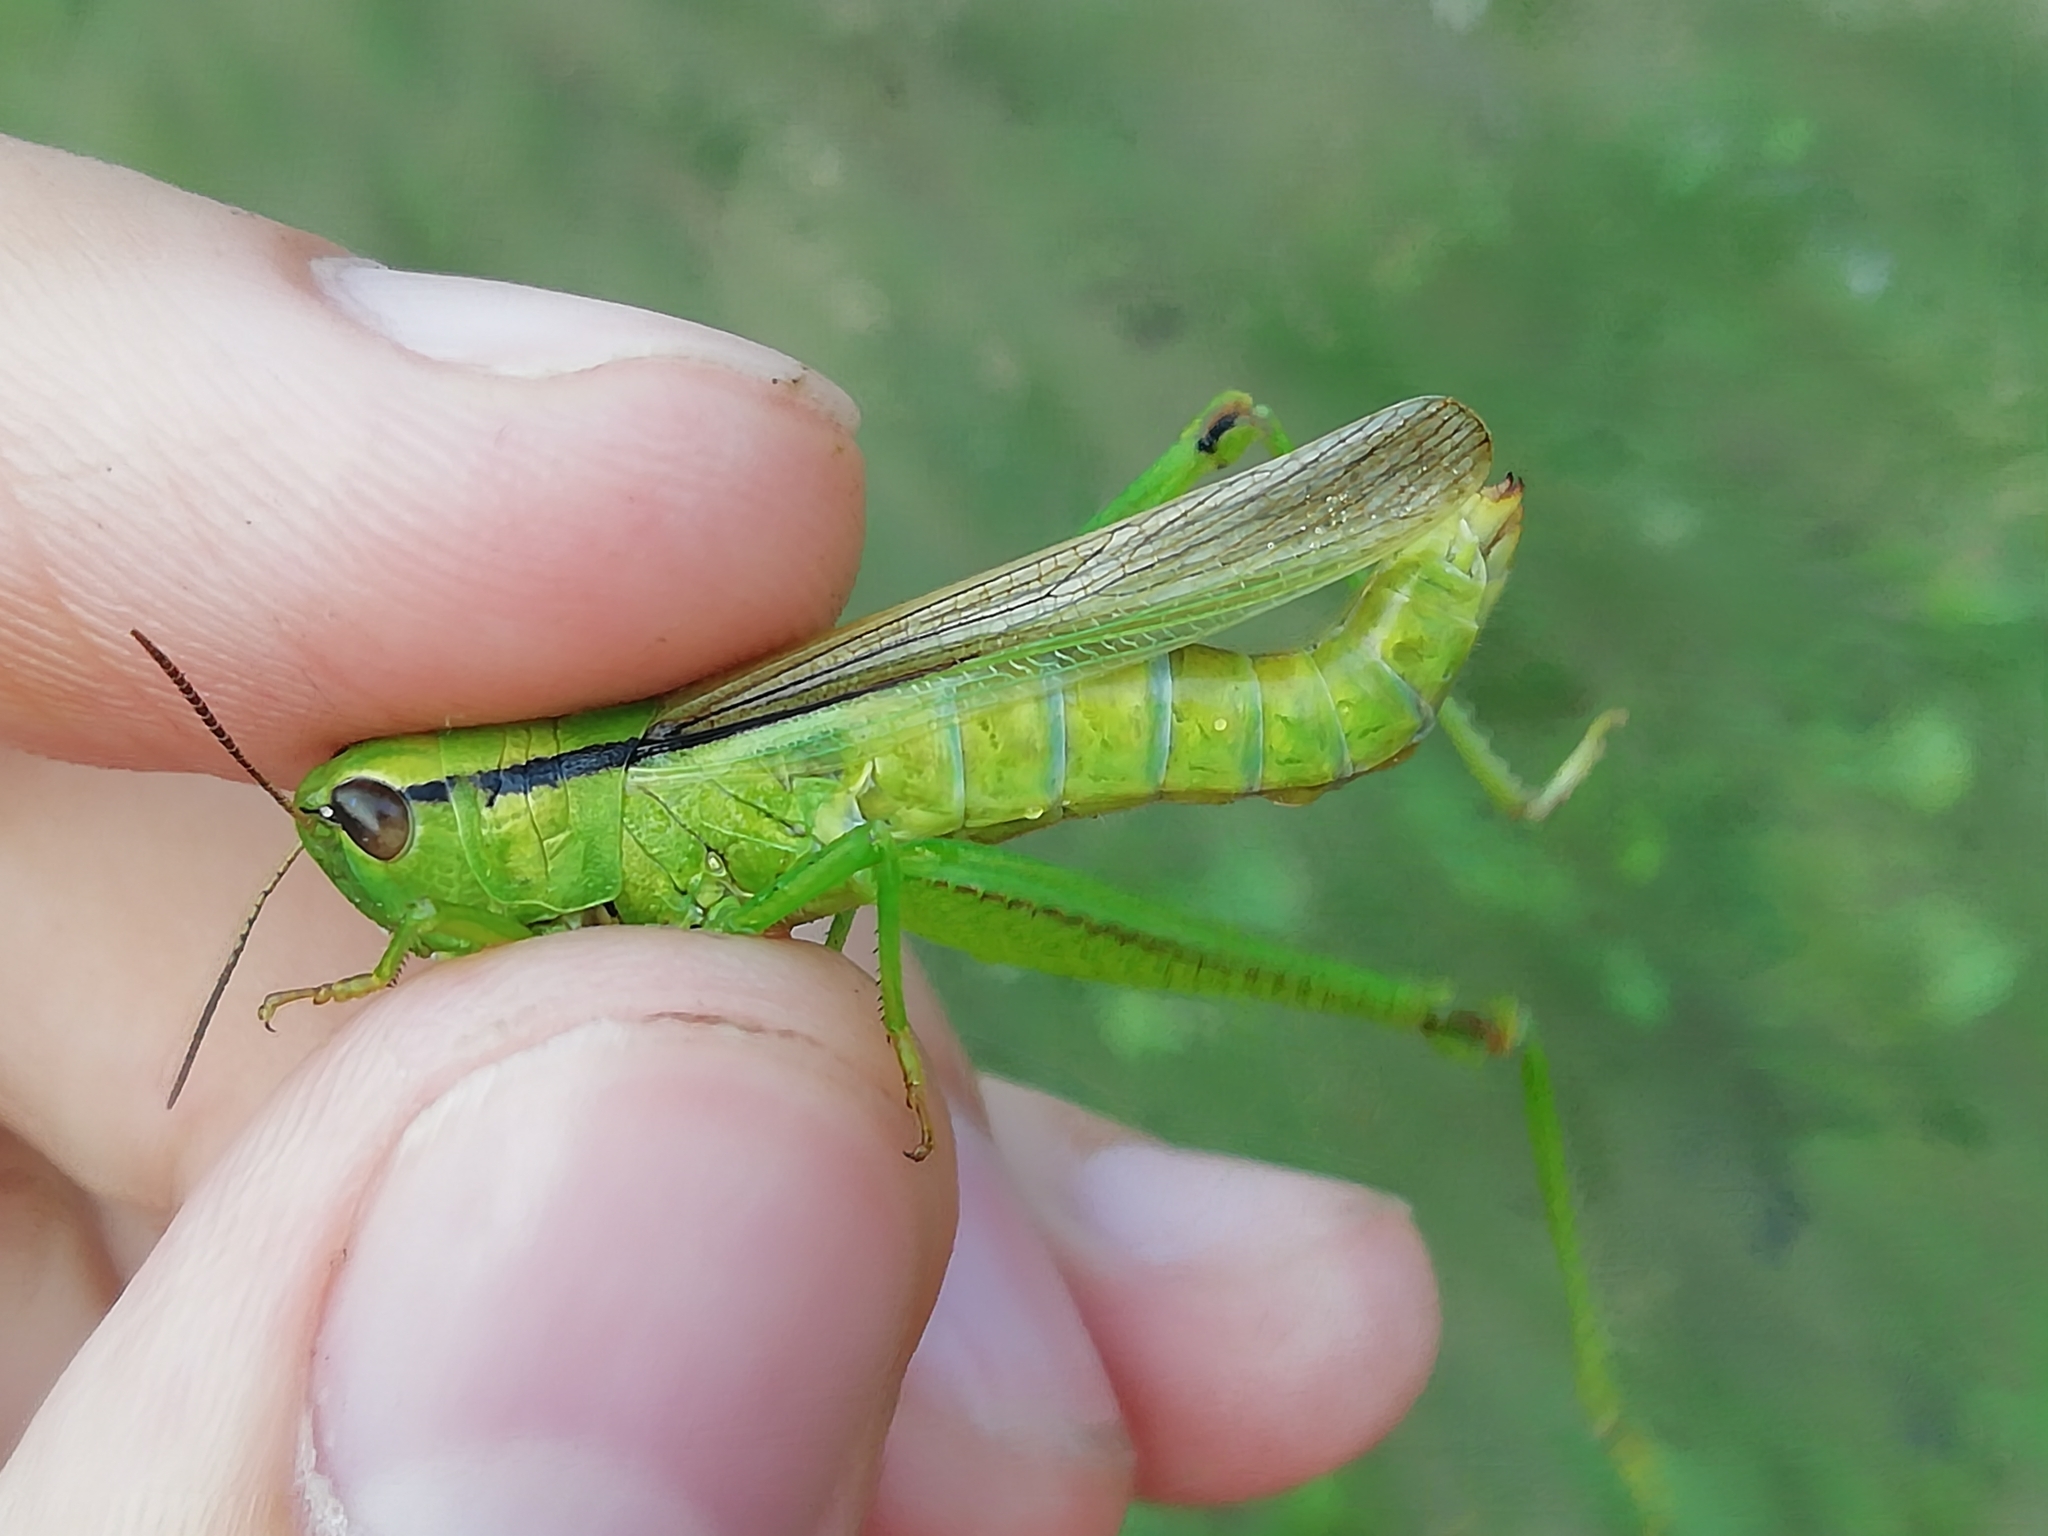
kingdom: Animalia
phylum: Arthropoda
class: Insecta
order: Orthoptera
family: Acrididae
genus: Mecostethus
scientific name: Mecostethus parapleurus
